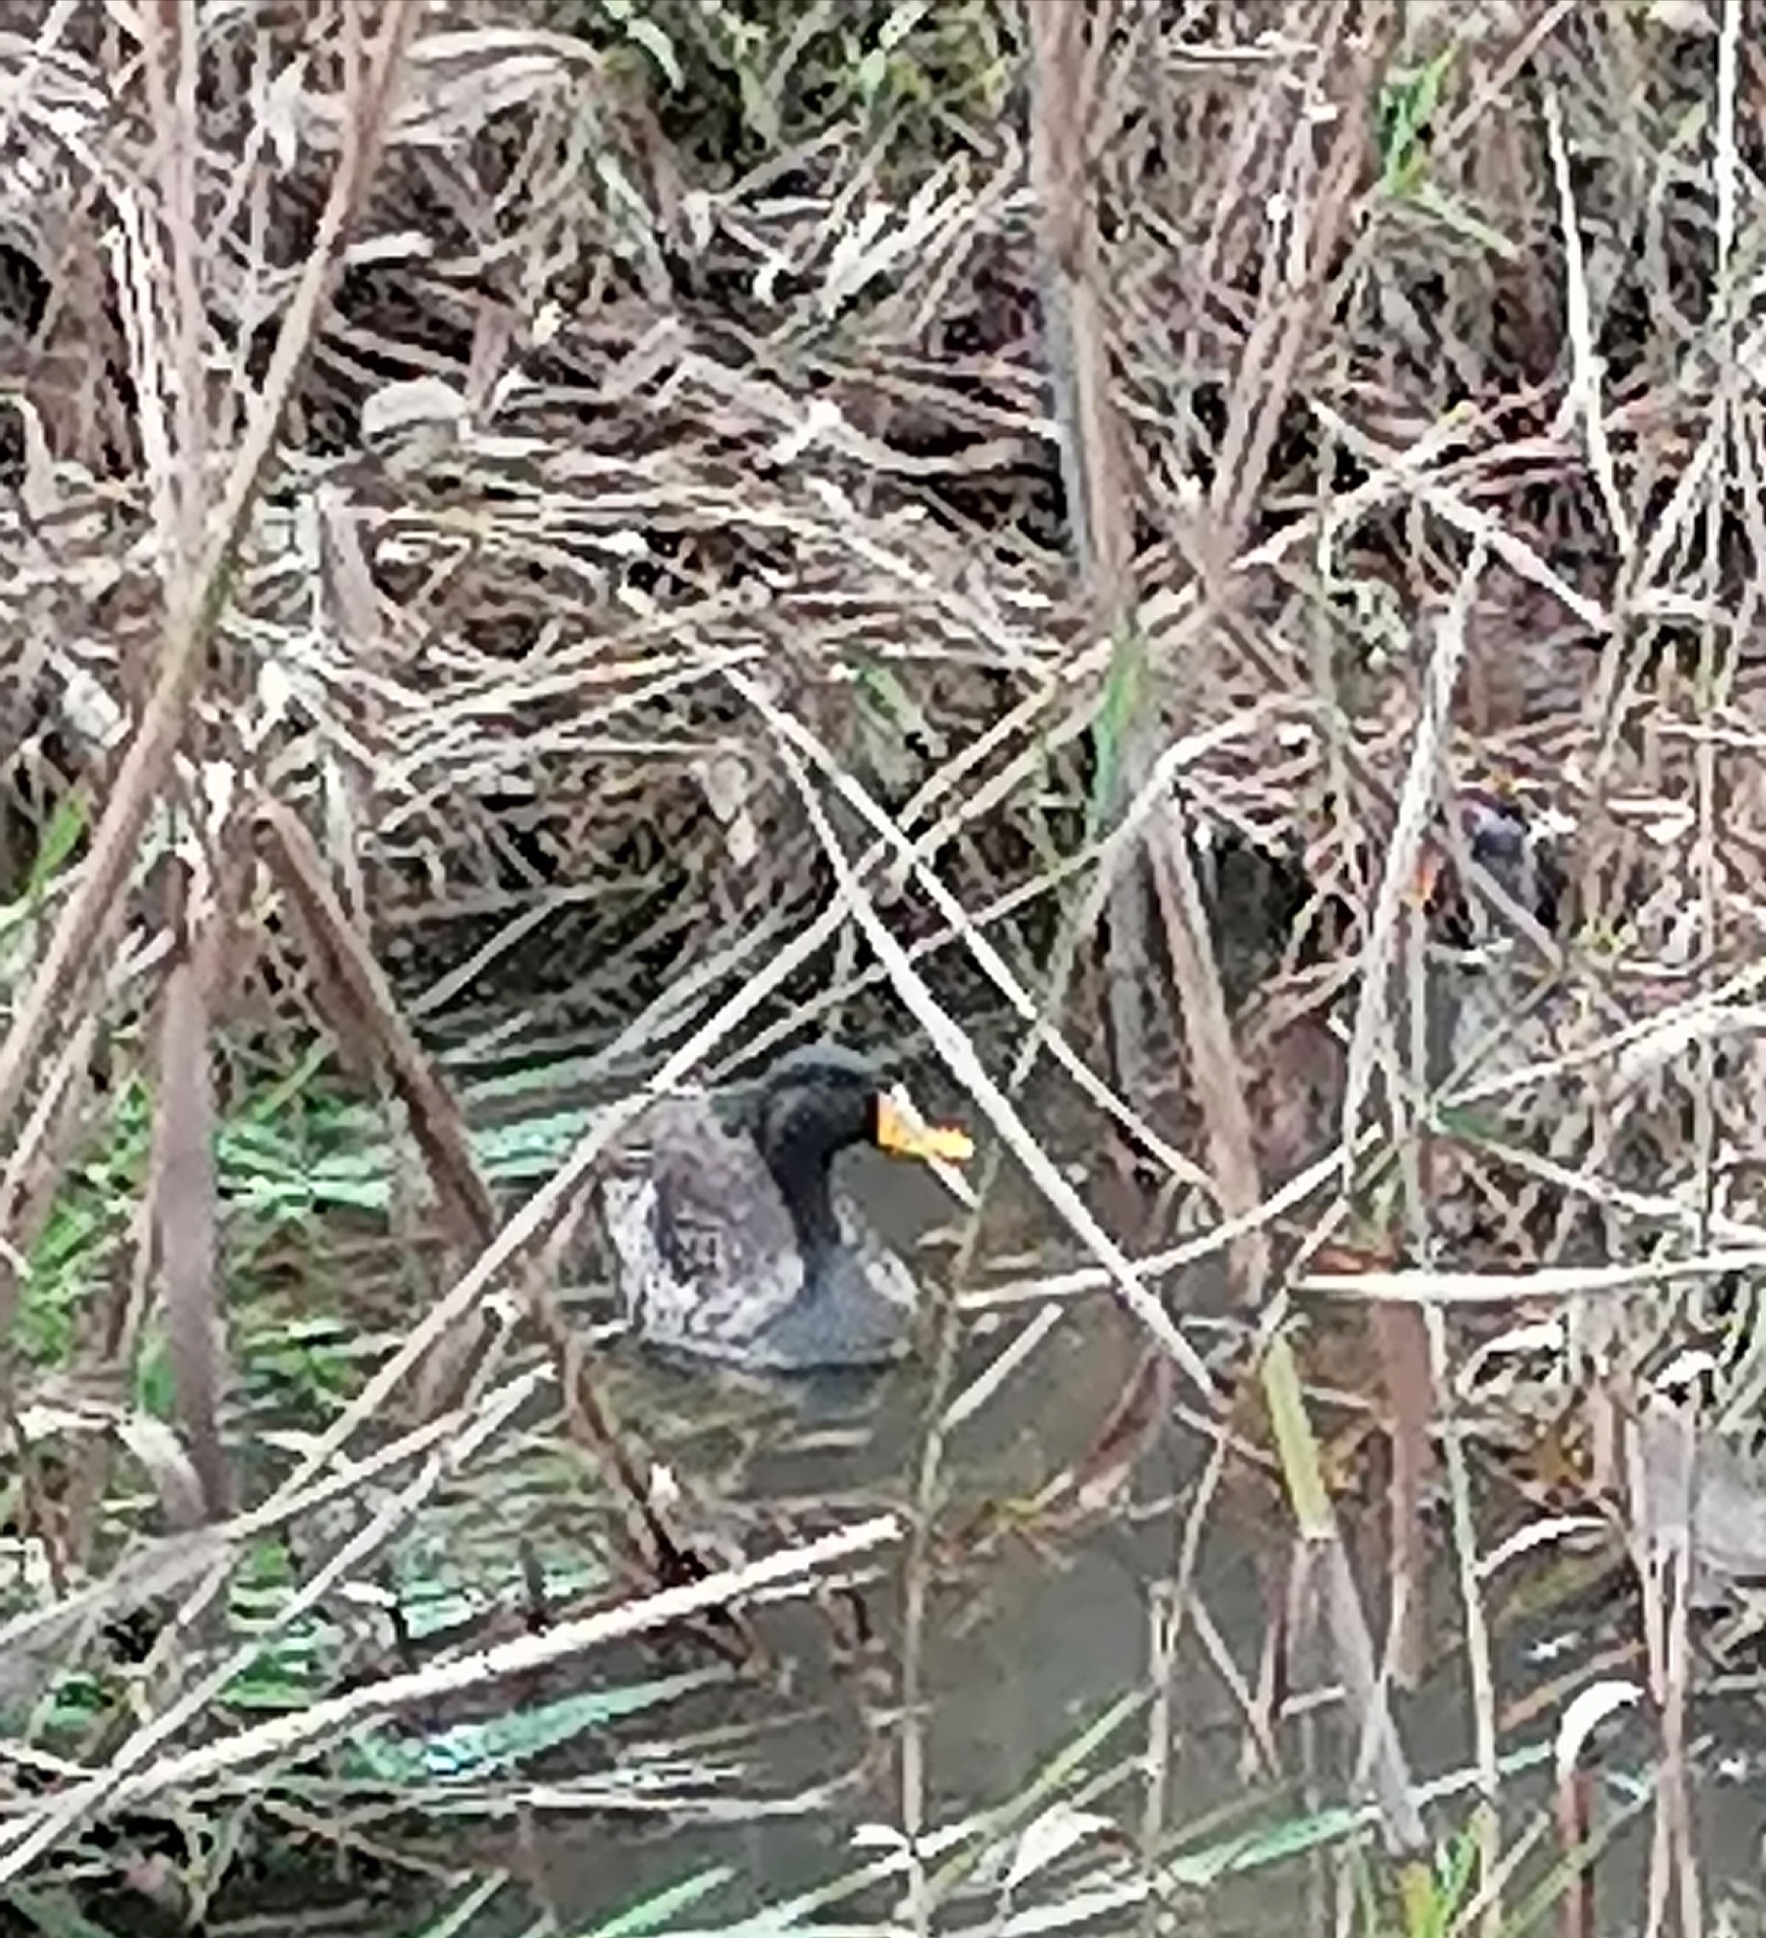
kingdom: Animalia
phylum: Chordata
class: Aves
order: Anseriformes
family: Anatidae
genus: Anas
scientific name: Anas undulata
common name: Yellow-billed duck
